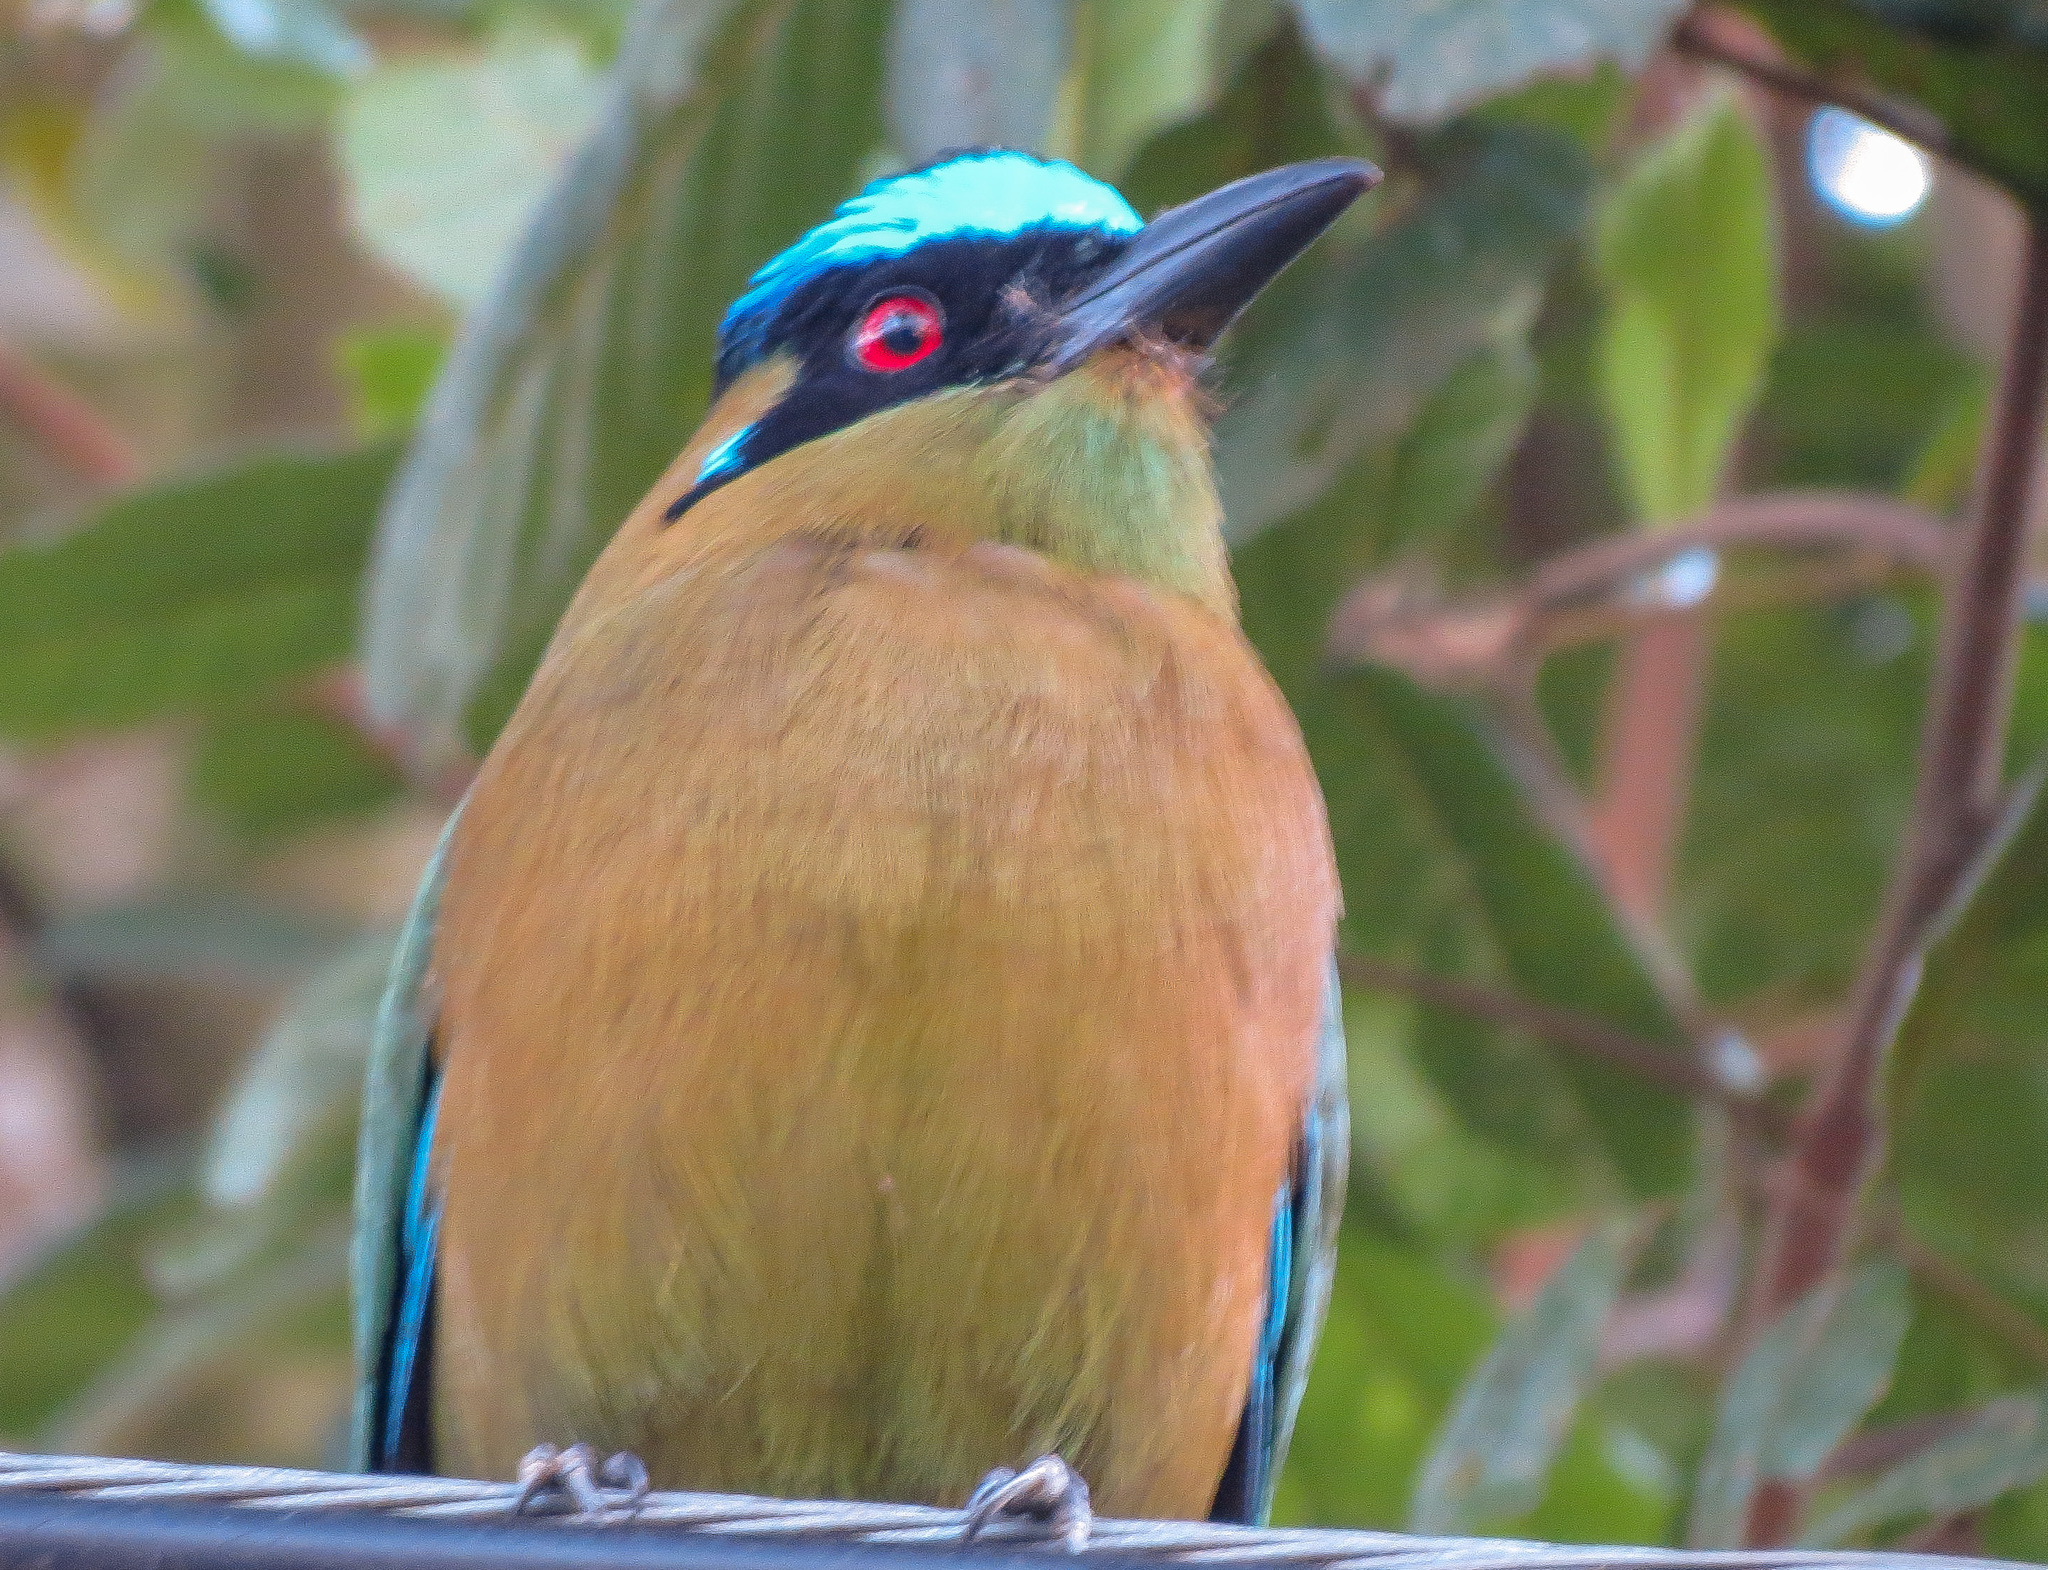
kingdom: Animalia
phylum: Chordata
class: Aves
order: Coraciiformes
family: Momotidae
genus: Momotus
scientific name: Momotus aequatorialis
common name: Andean motmot
